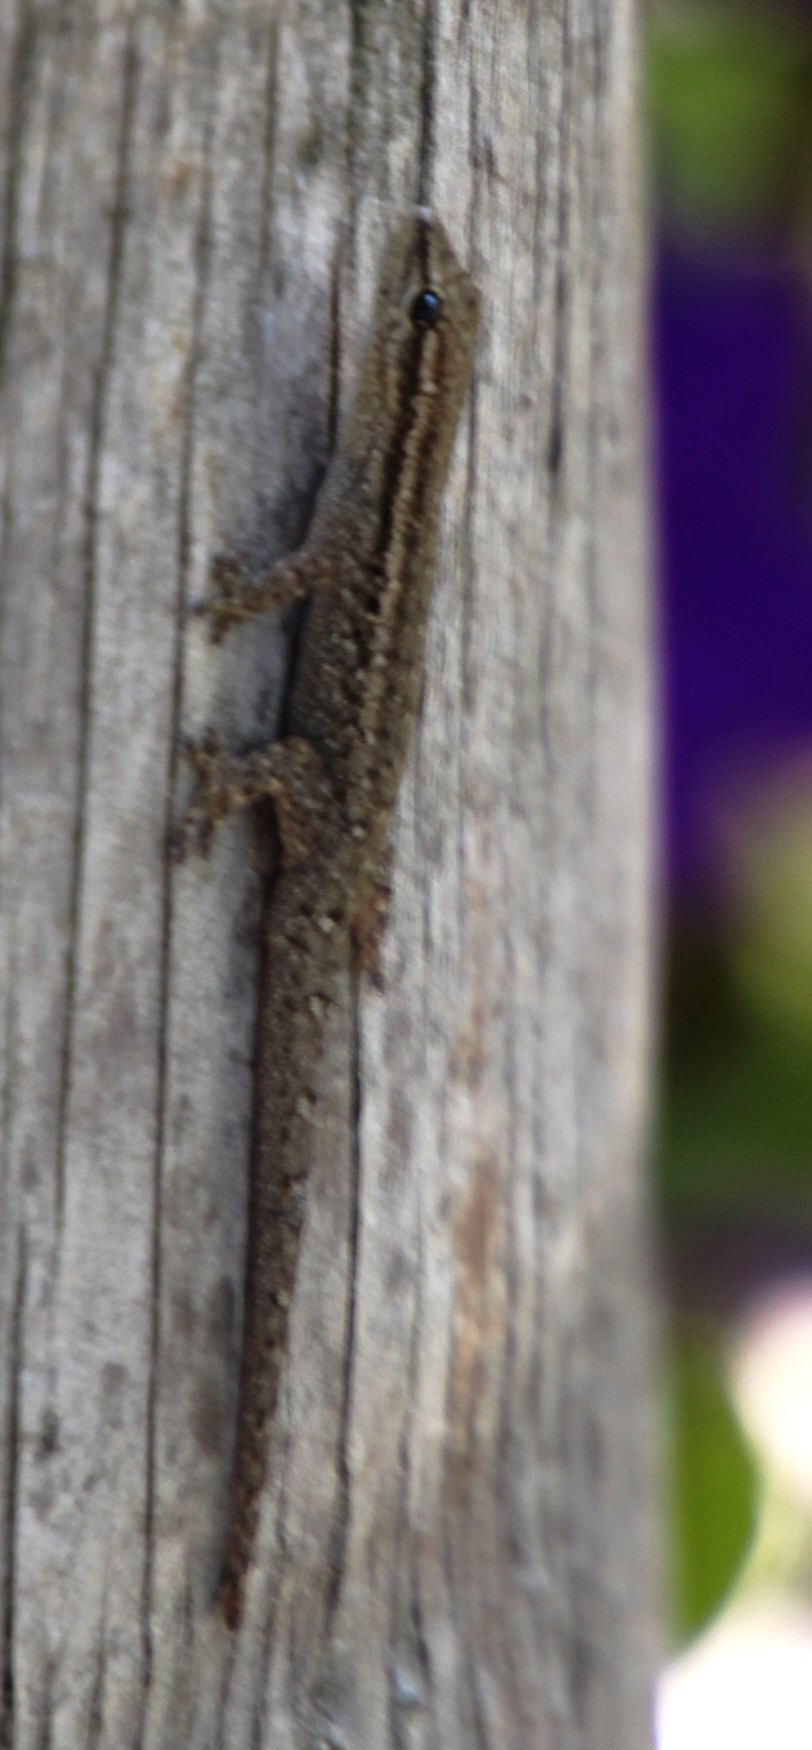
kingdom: Animalia
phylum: Chordata
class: Squamata
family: Gekkonidae
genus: Lygodactylus
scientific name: Lygodactylus capensis
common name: Cape dwarf gecko
